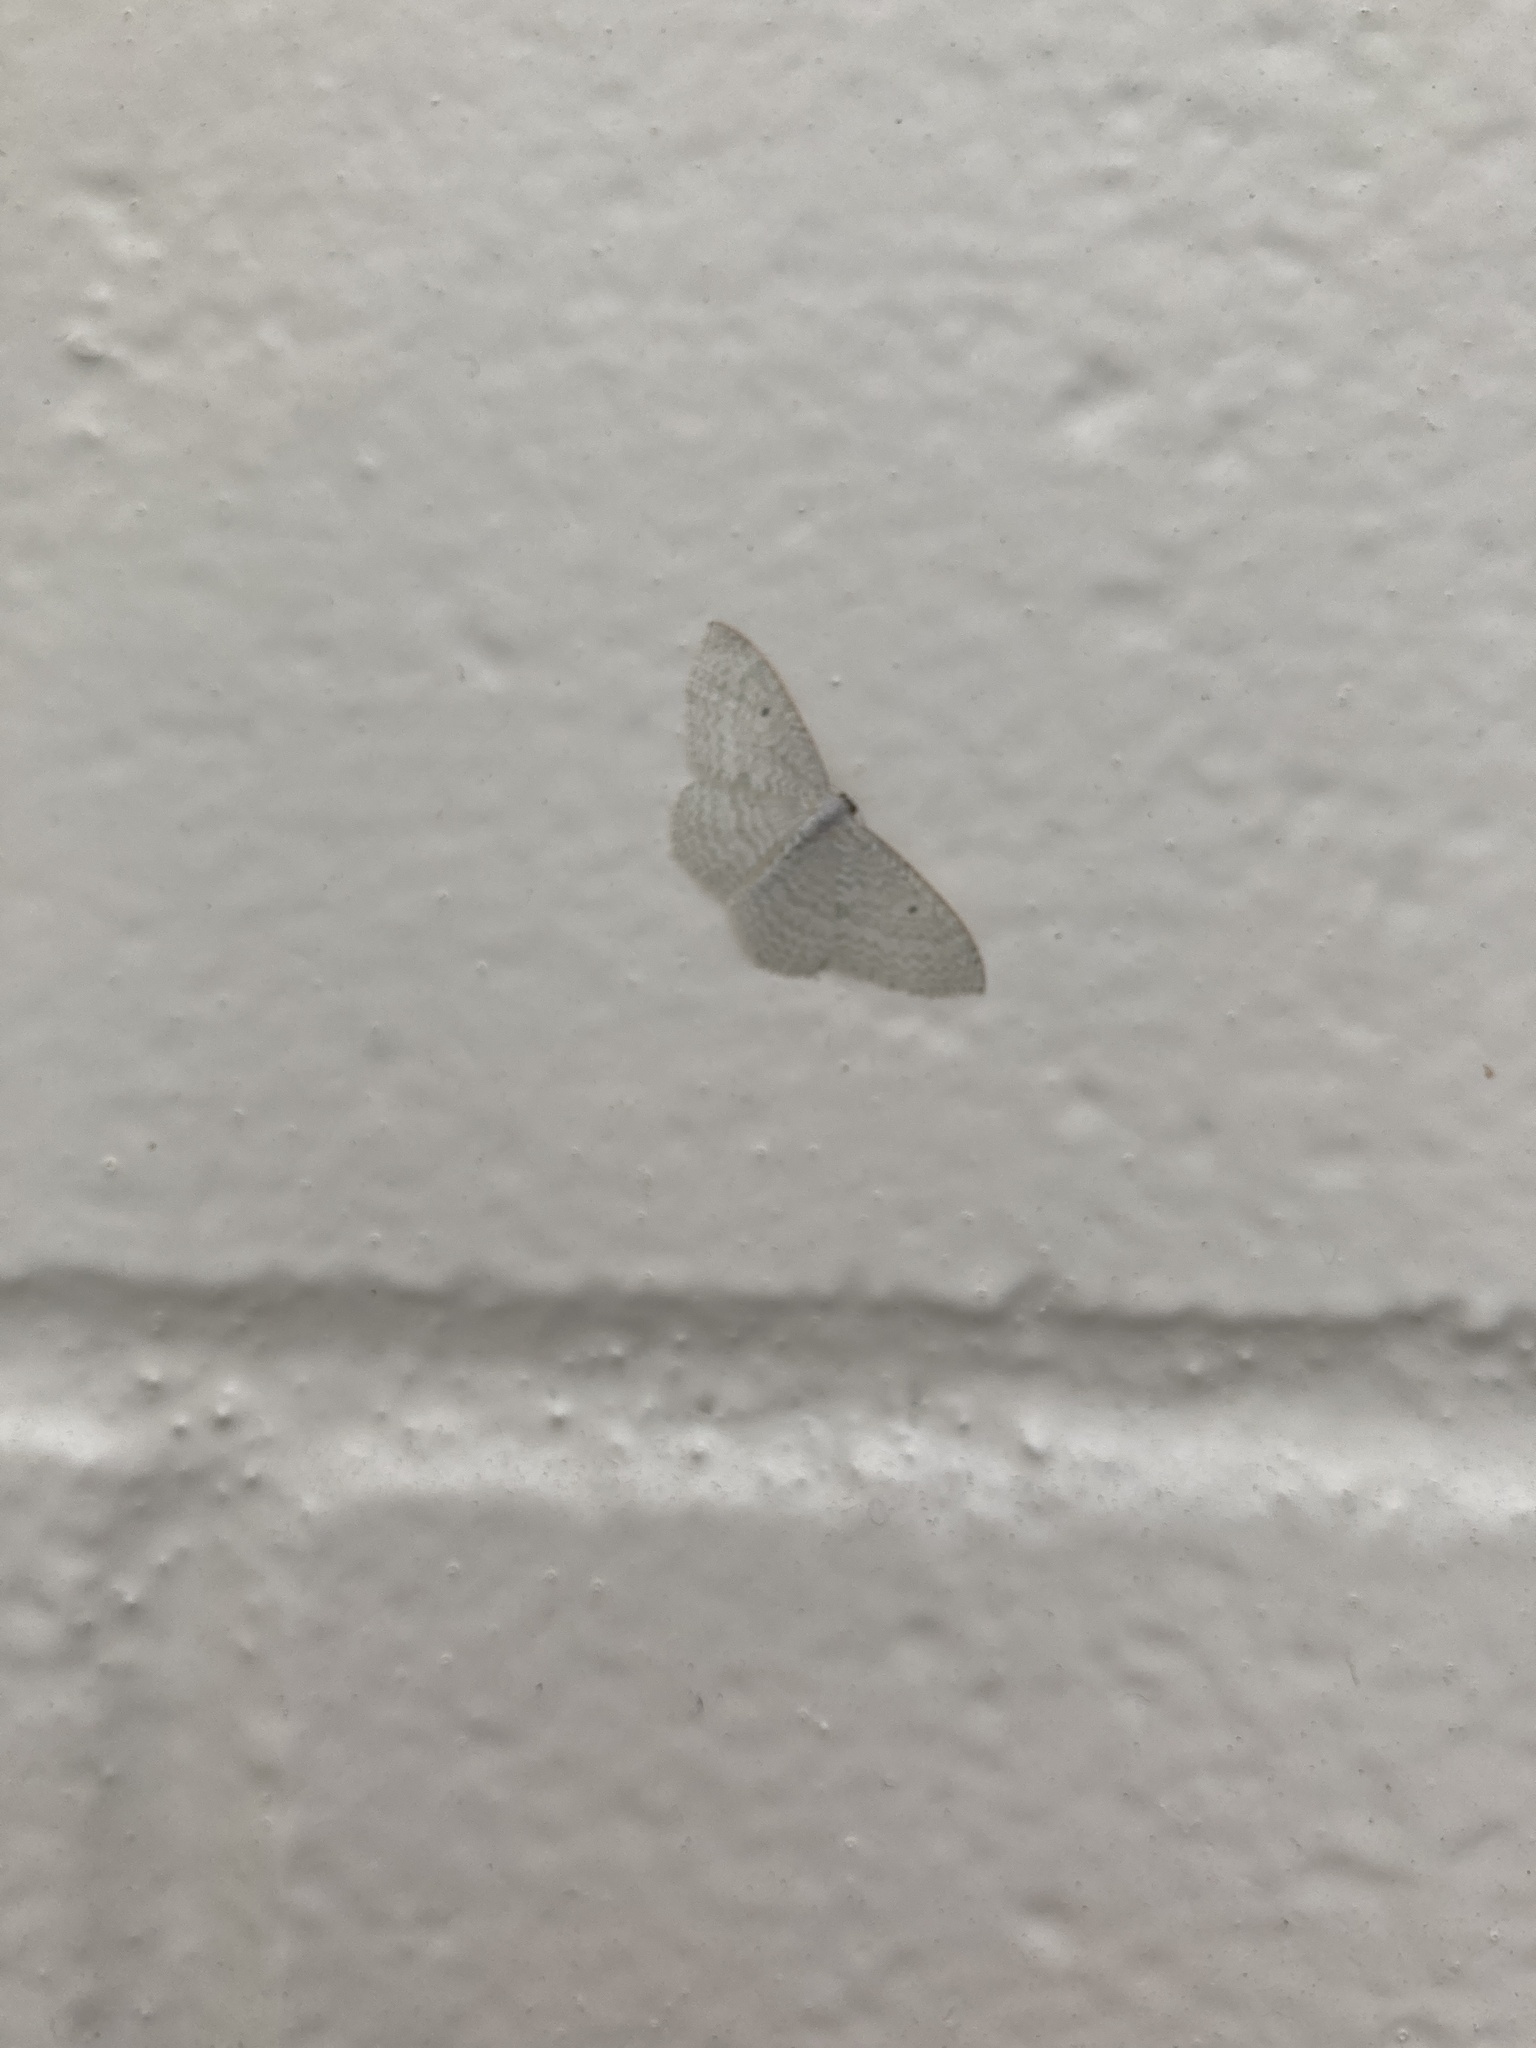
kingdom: Animalia
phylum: Arthropoda
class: Insecta
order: Lepidoptera
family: Geometridae
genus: Poecilasthena
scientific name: Poecilasthena pulchraria
